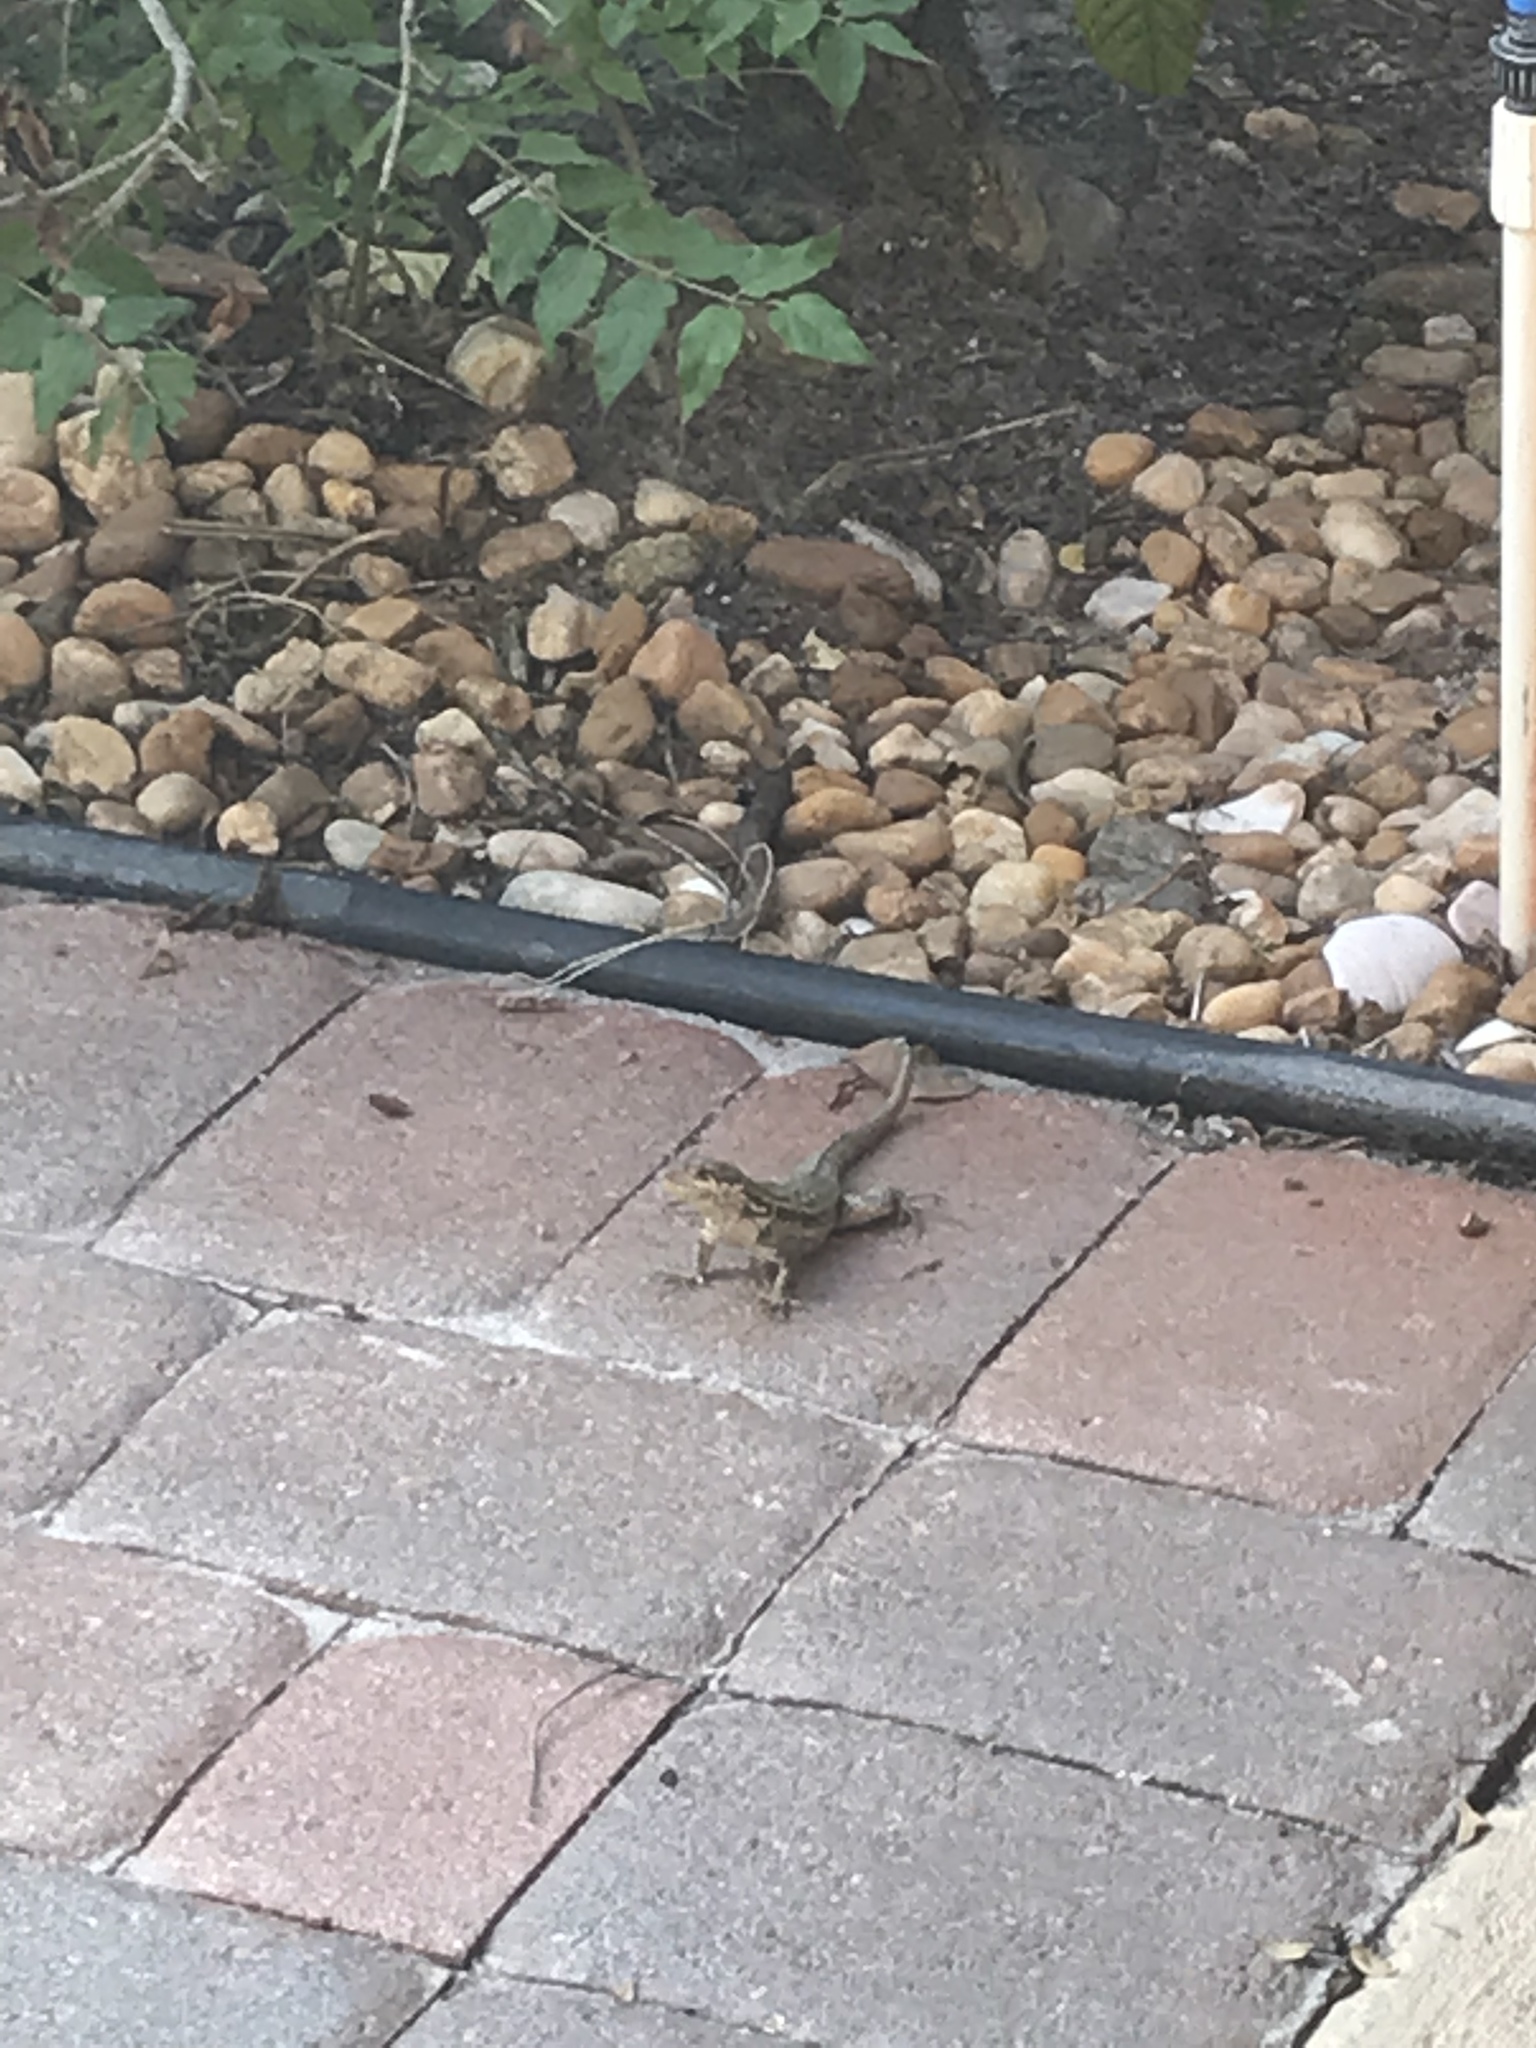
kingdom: Animalia
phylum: Chordata
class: Squamata
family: Leiocephalidae
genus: Leiocephalus
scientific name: Leiocephalus carinatus
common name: Northern curly-tailed lizard
